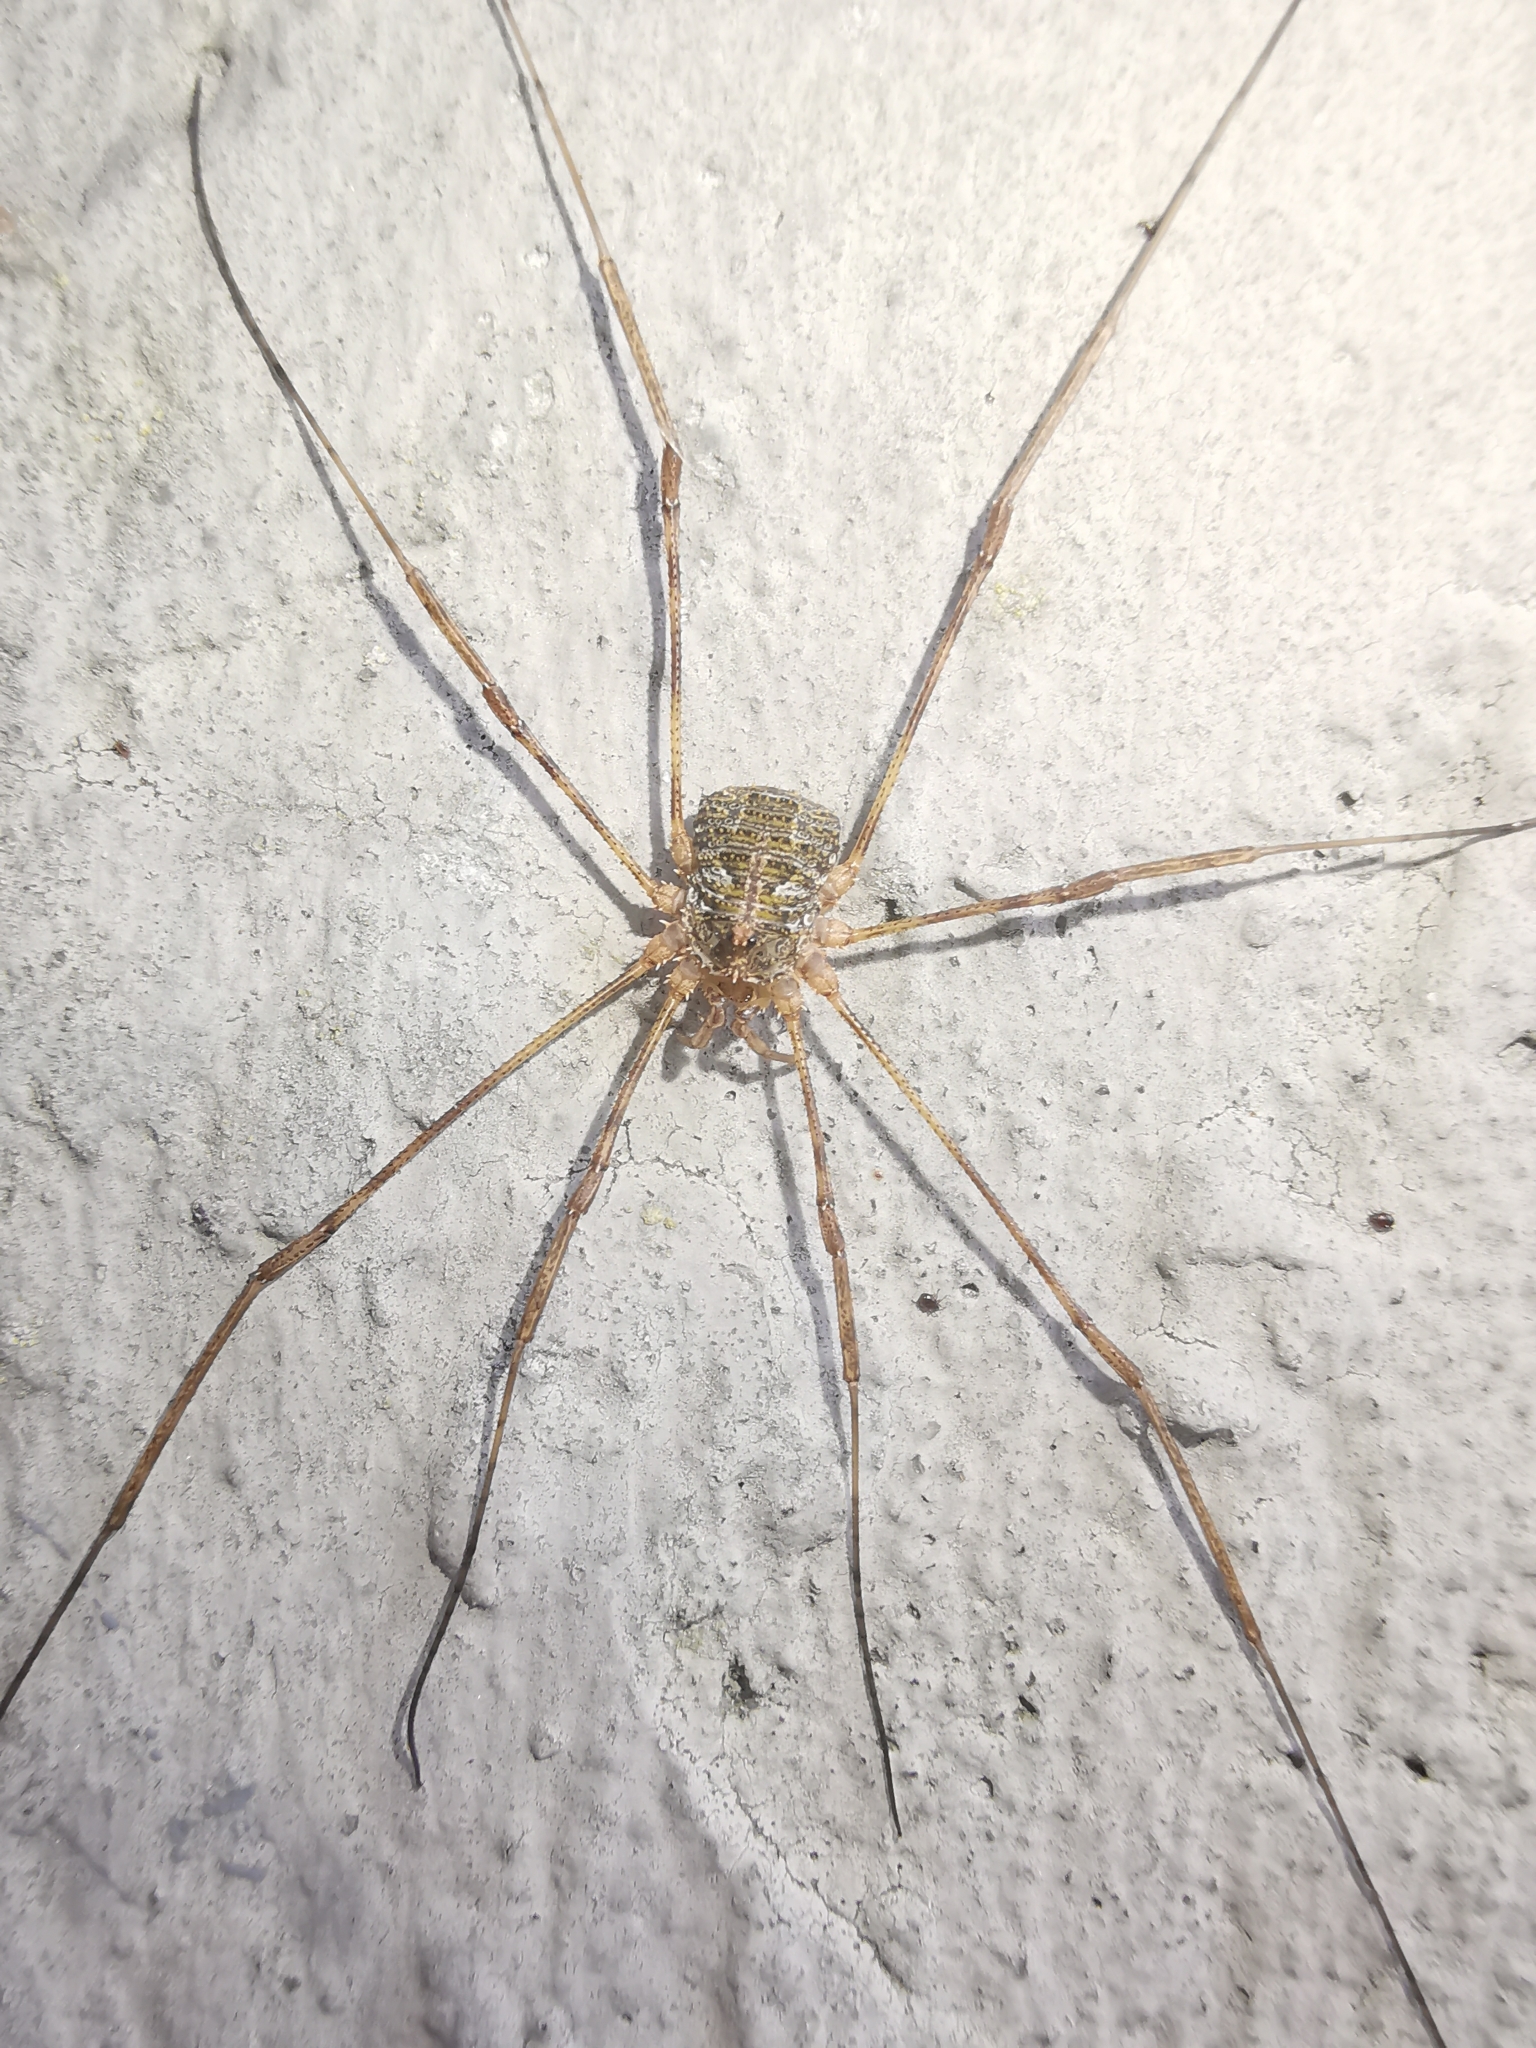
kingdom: Animalia
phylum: Arthropoda
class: Arachnida
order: Opiliones
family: Phalangiidae
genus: Lacinius
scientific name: Lacinius dentiger
